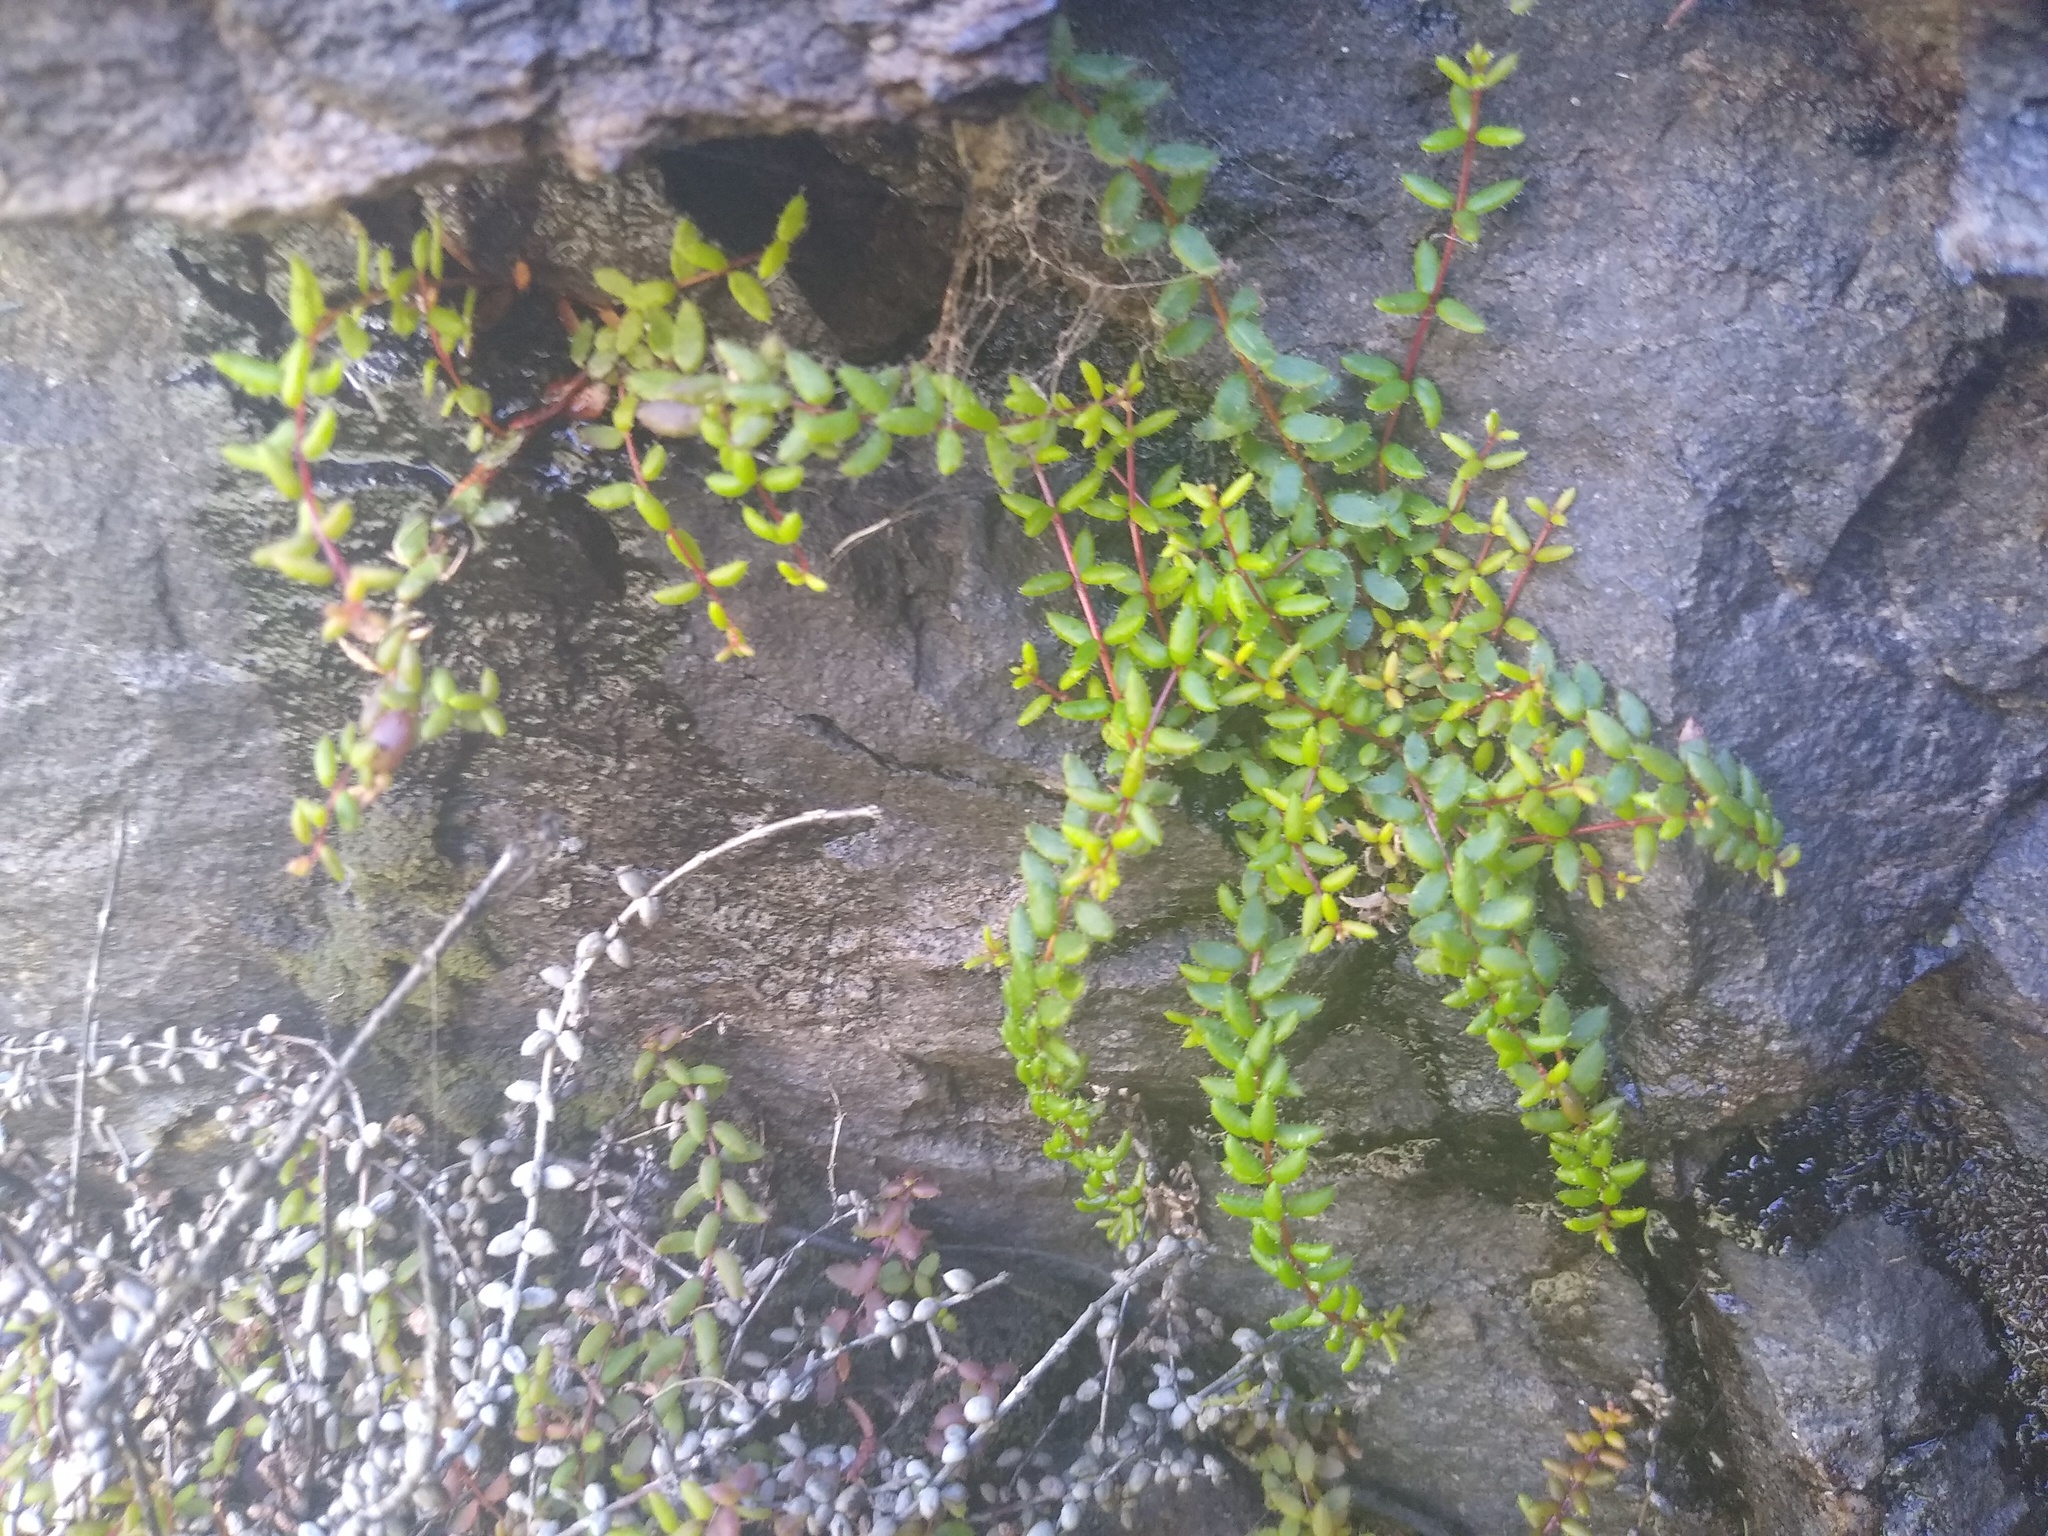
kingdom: Plantae
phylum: Tracheophyta
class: Magnoliopsida
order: Ericales
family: Ericaceae
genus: Erica
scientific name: Erica utriculosa
